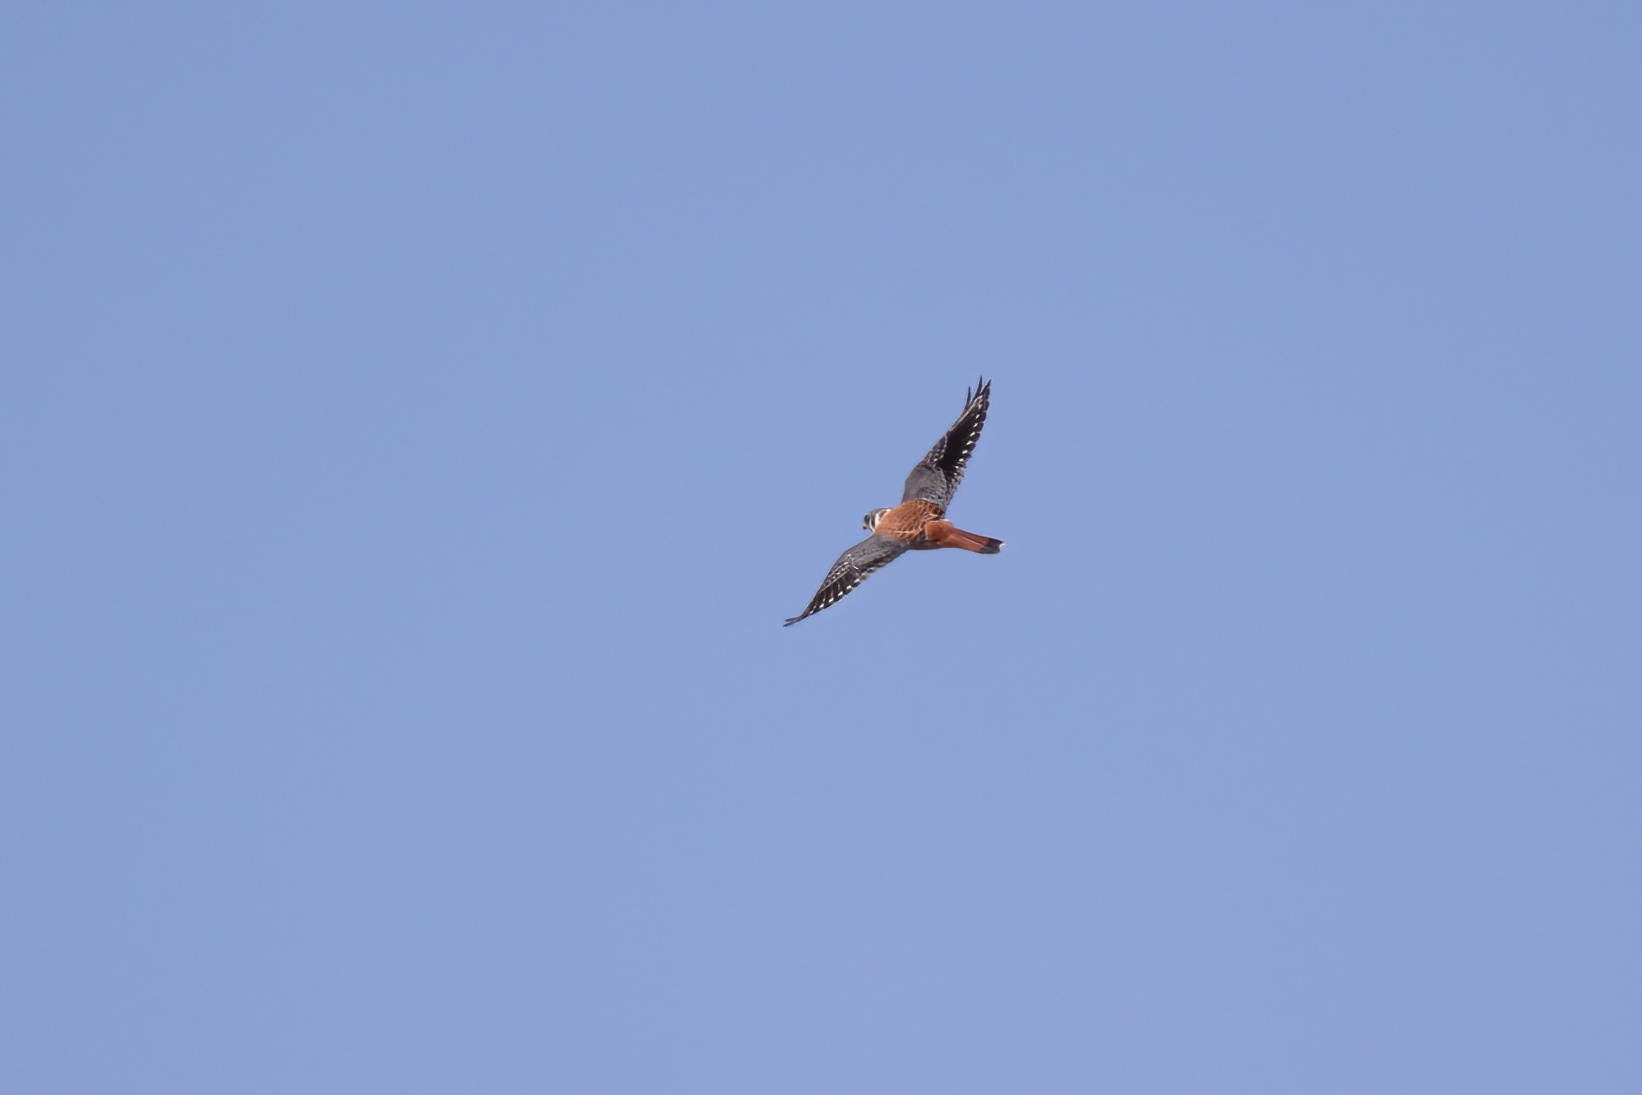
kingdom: Animalia
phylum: Chordata
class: Aves
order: Falconiformes
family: Falconidae
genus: Falco
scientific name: Falco sparverius
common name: American kestrel
